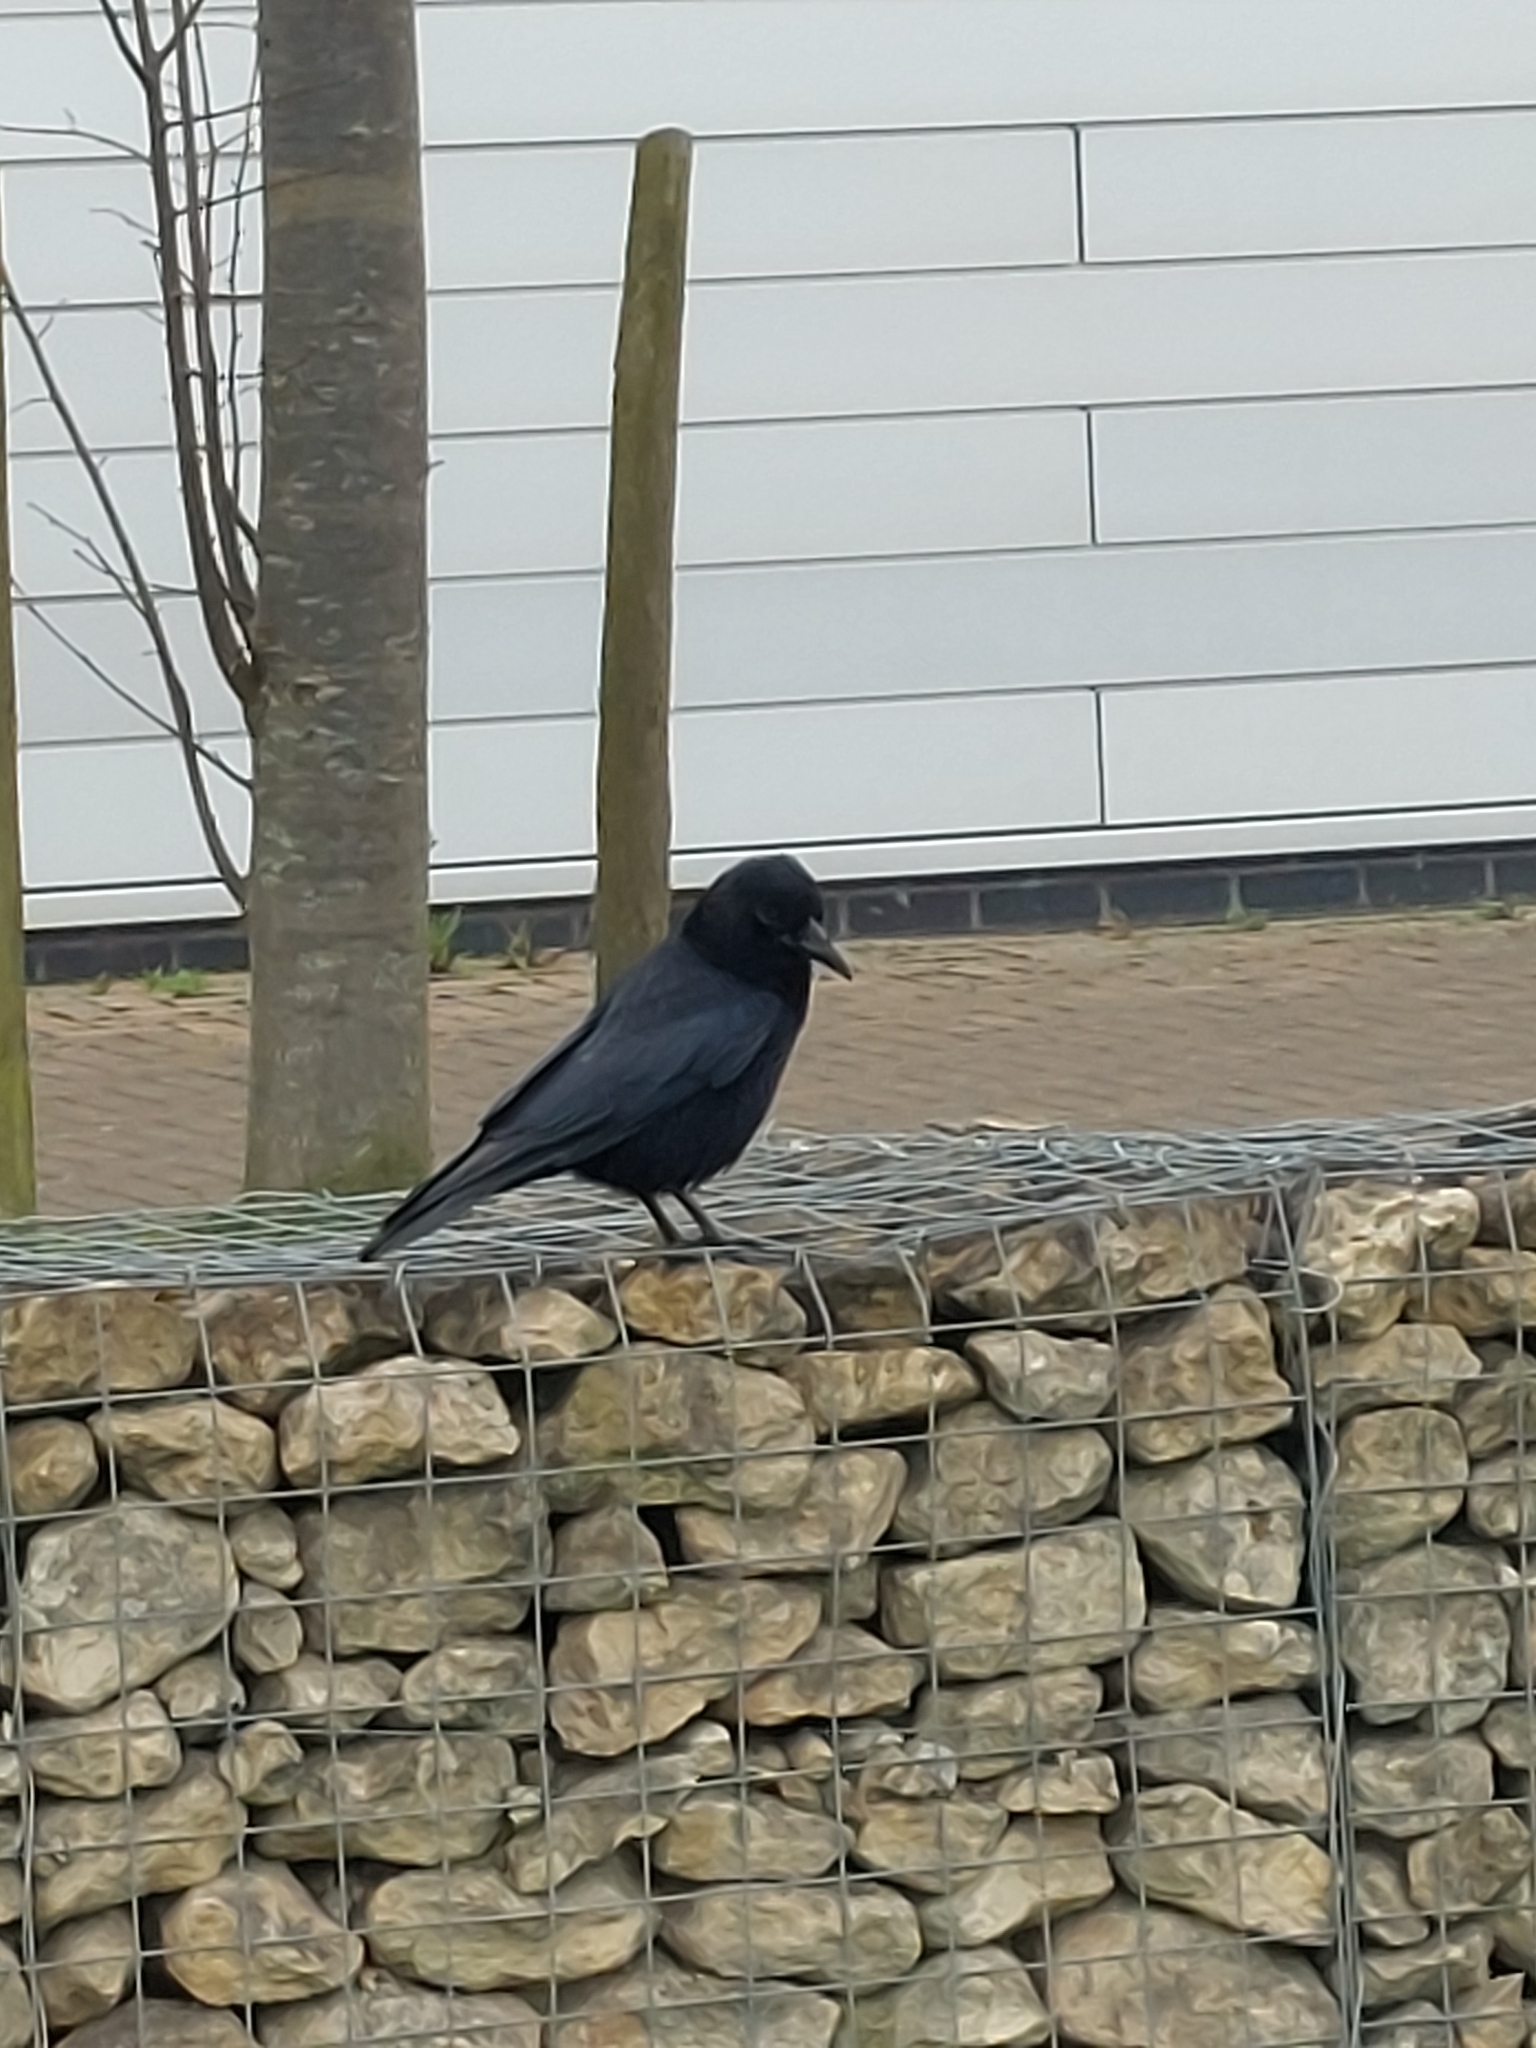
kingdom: Animalia
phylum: Chordata
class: Aves
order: Passeriformes
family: Corvidae
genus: Corvus
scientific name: Corvus corone
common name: Carrion crow
